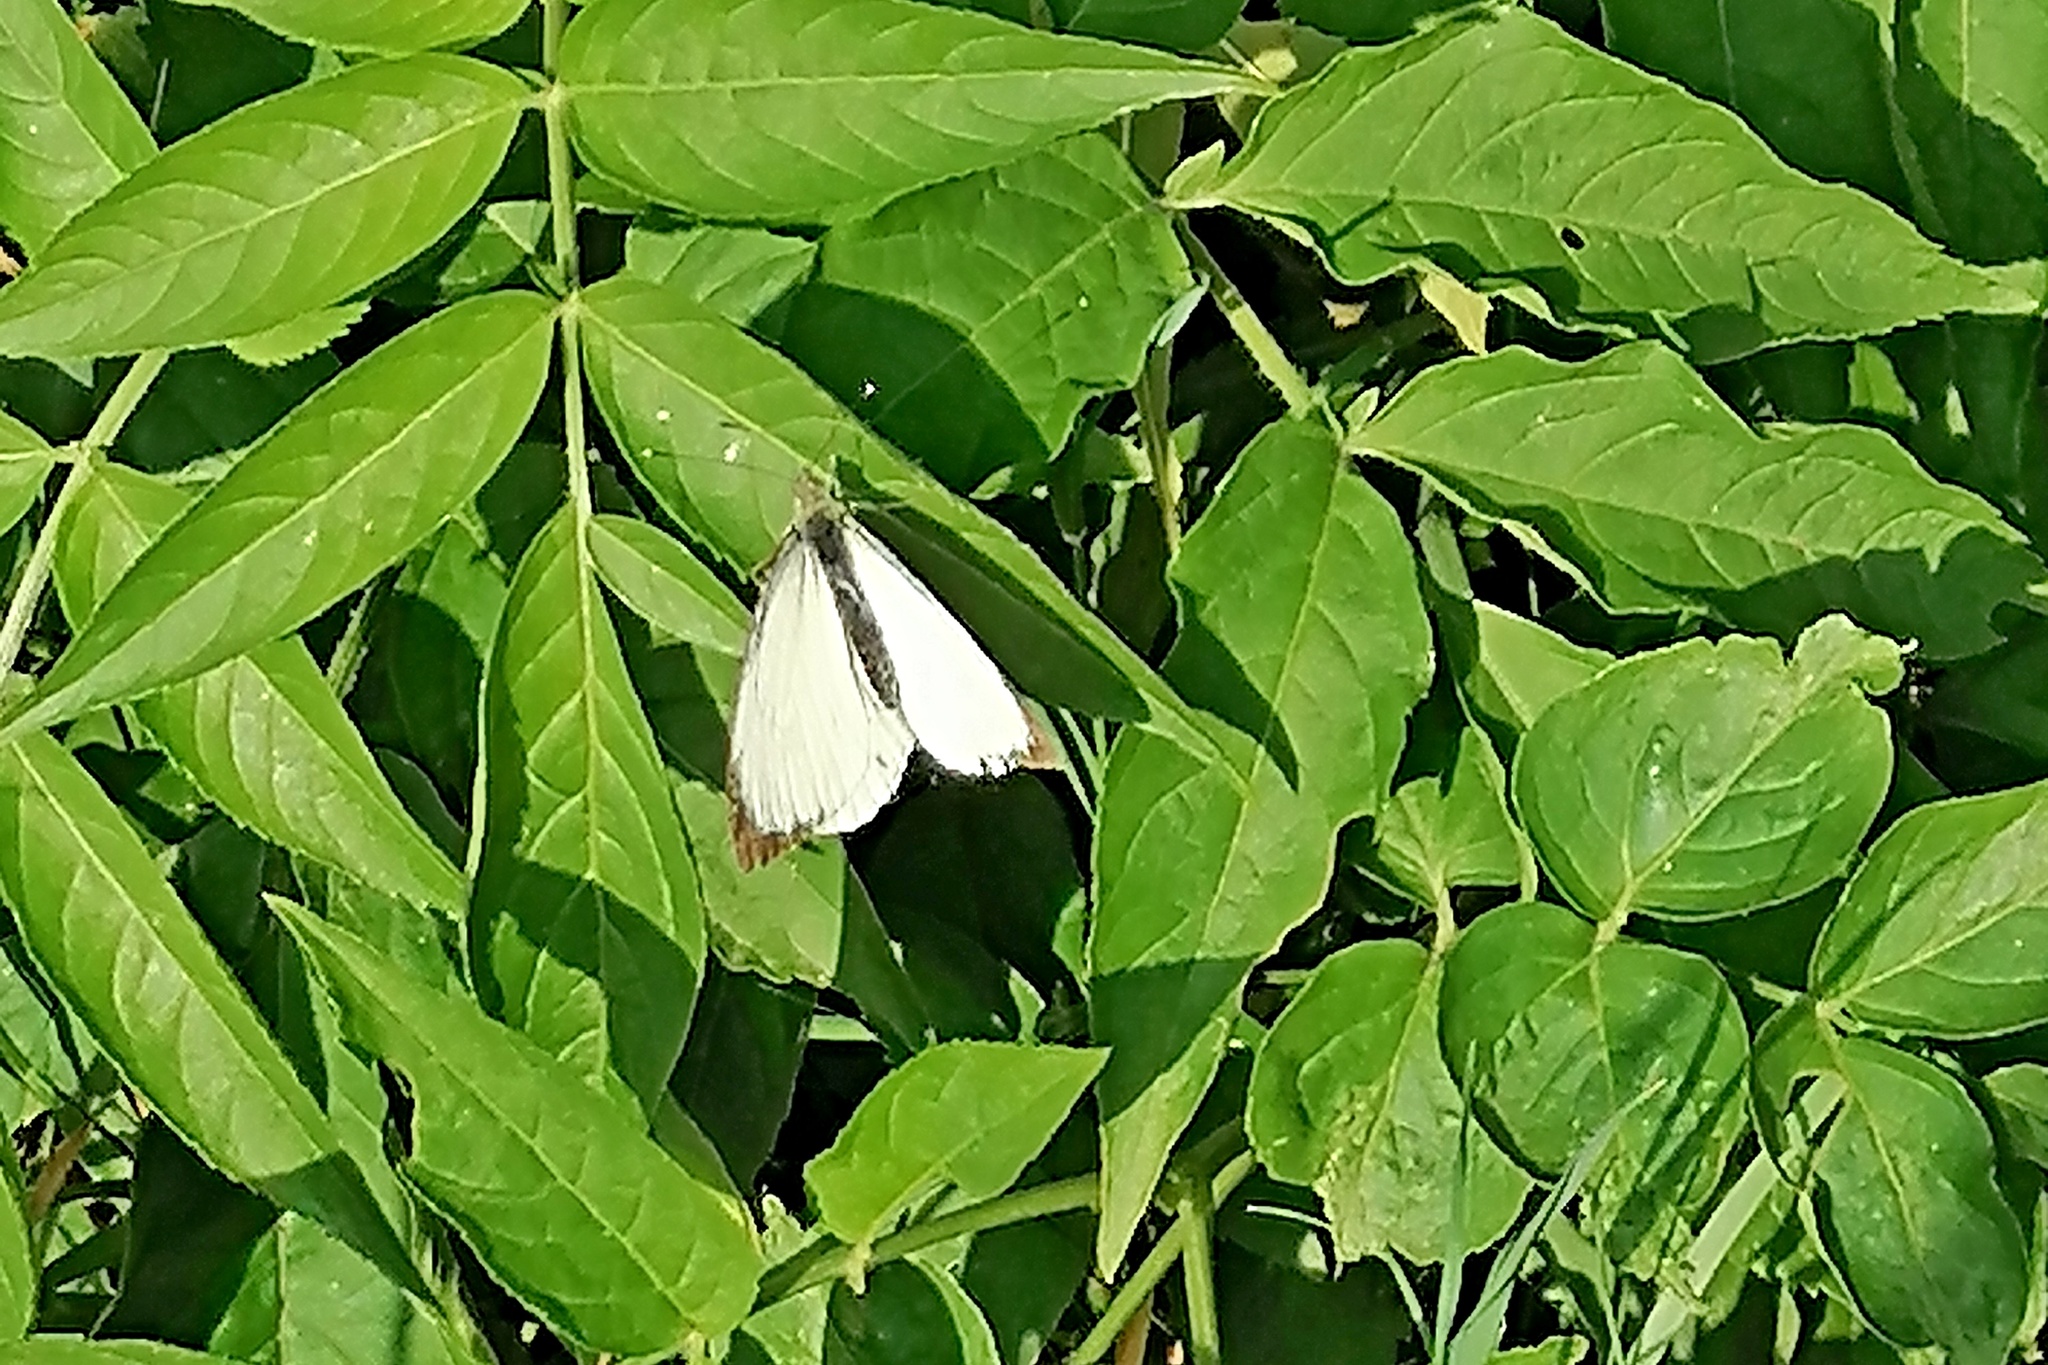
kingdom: Animalia
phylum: Arthropoda
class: Insecta
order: Lepidoptera
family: Pieridae
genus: Pieris
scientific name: Pieris brassicae
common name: Large white
